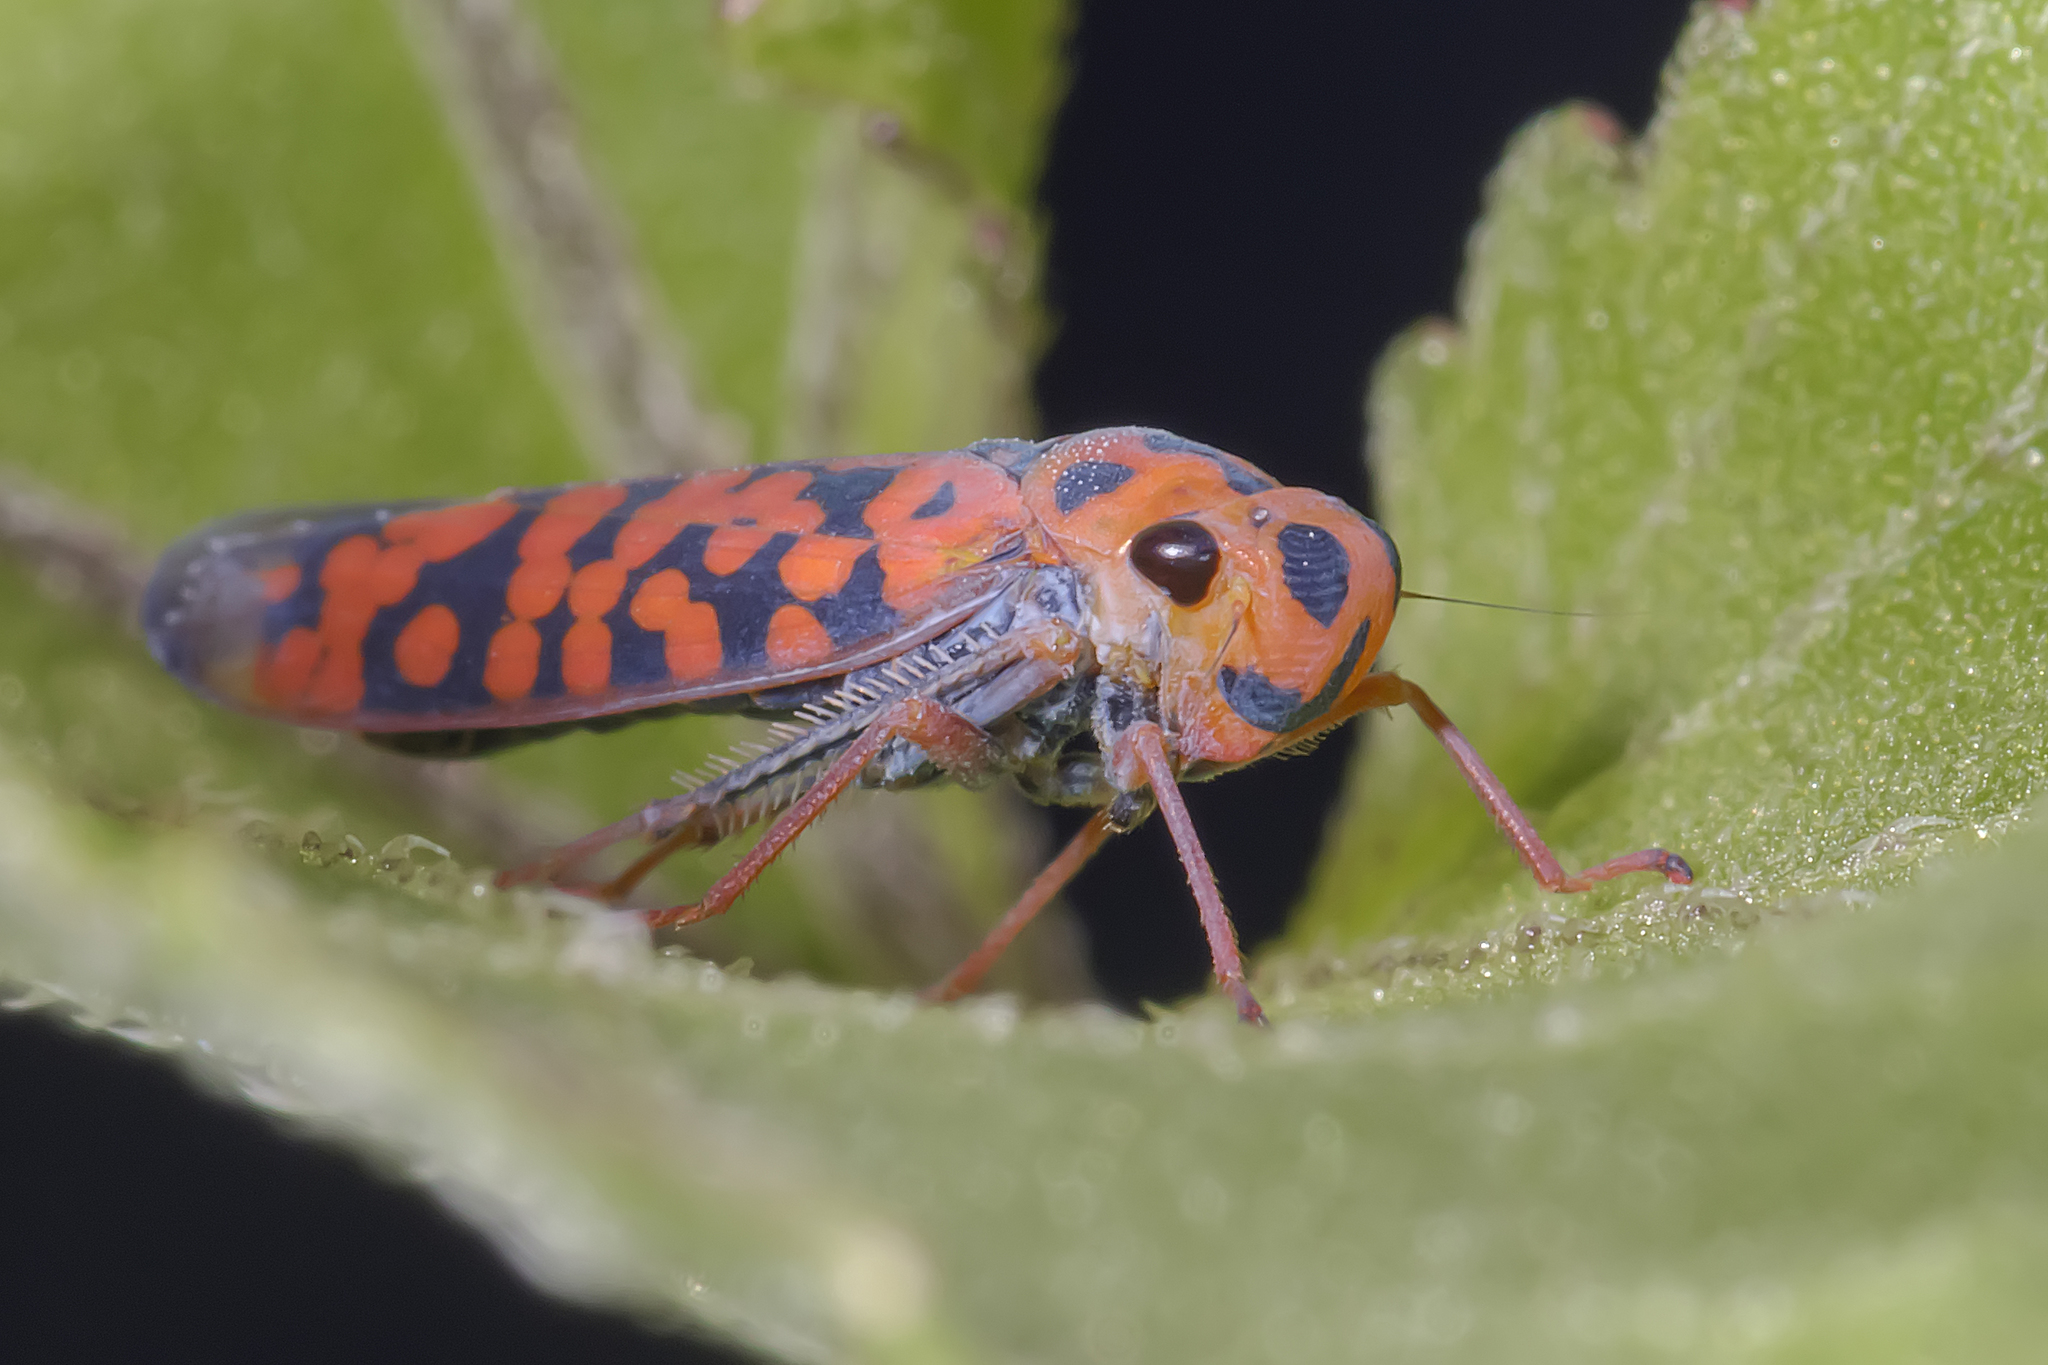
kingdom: Animalia
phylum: Arthropoda
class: Insecta
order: Hemiptera
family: Cicadellidae
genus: Pawiloma
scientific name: Pawiloma victima
